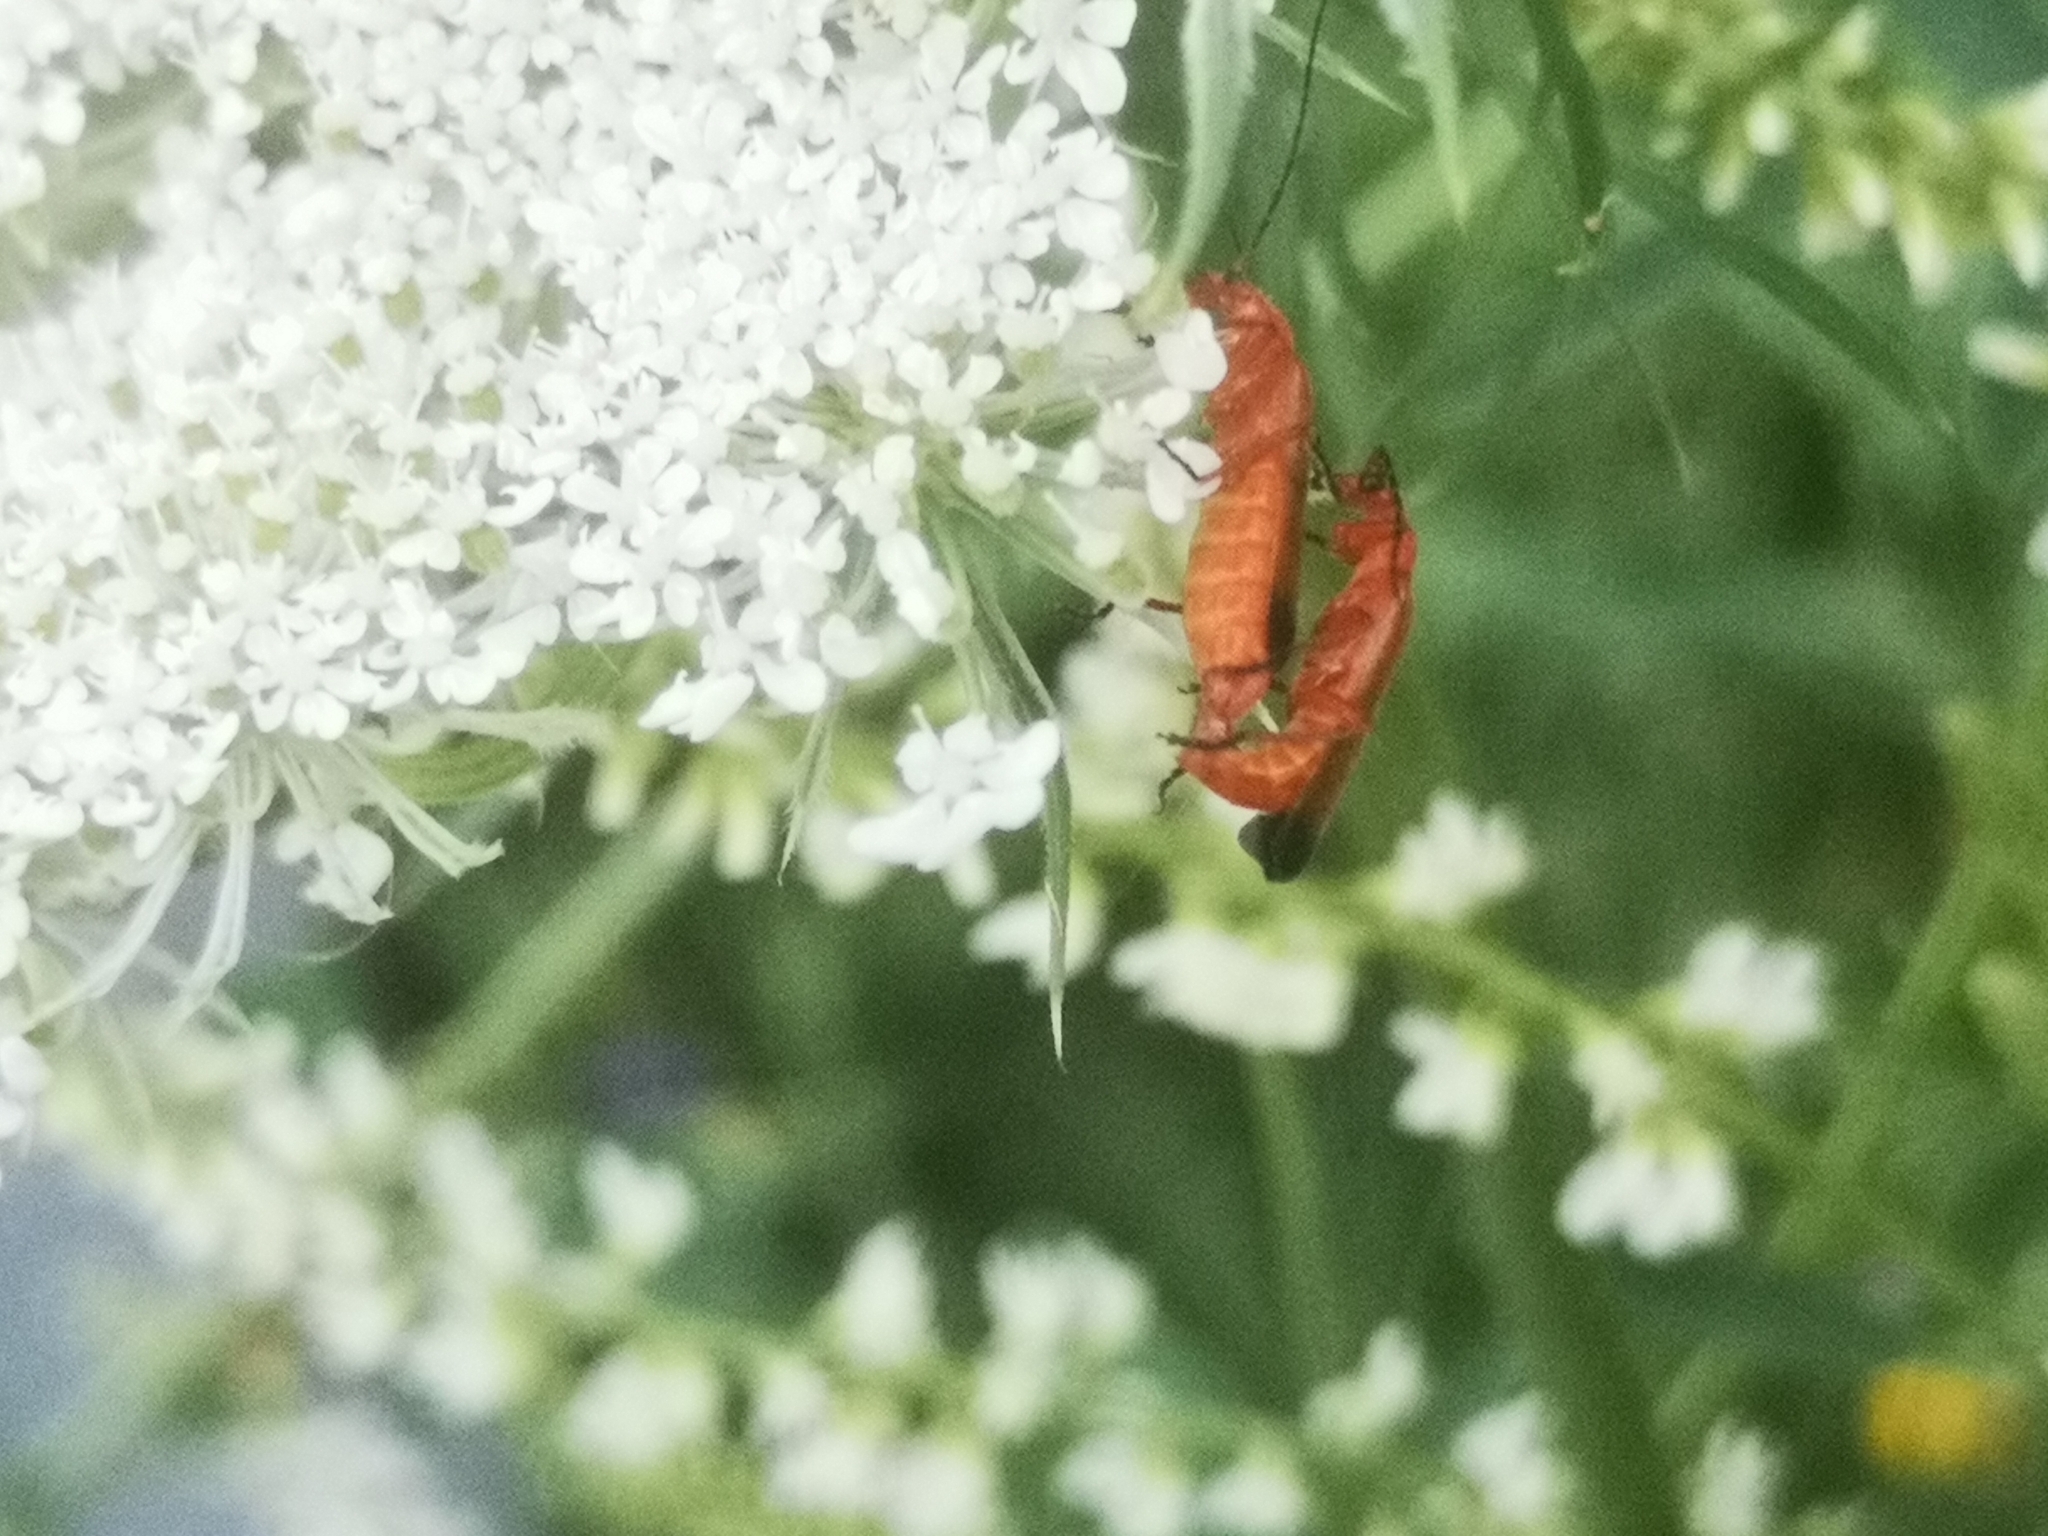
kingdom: Animalia
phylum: Arthropoda
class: Insecta
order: Coleoptera
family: Cantharidae
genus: Rhagonycha
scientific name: Rhagonycha fulva
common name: Common red soldier beetle
